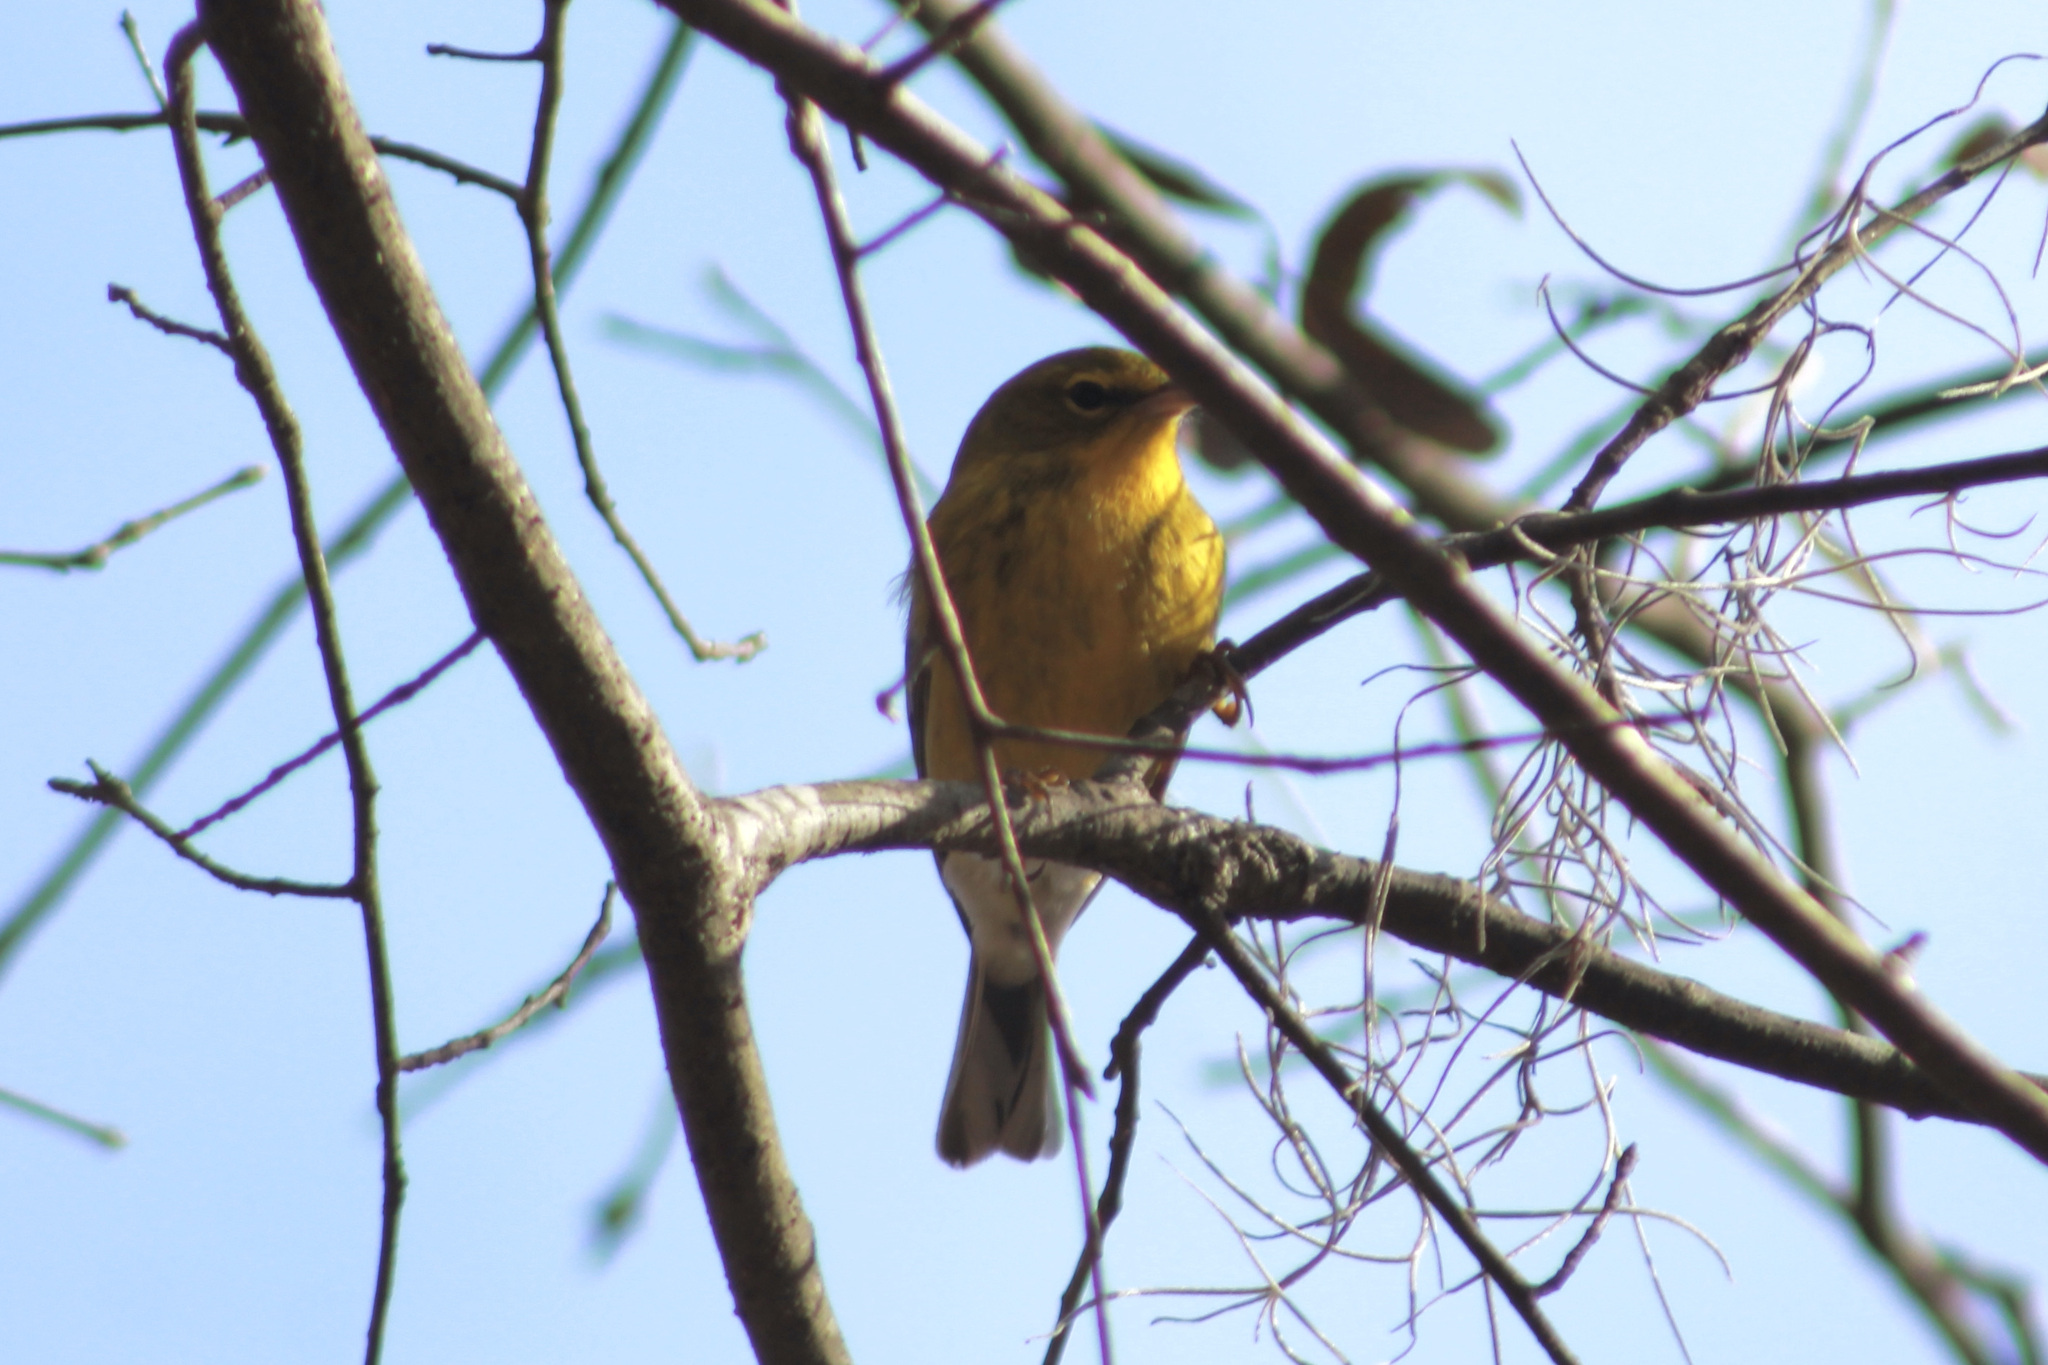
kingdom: Animalia
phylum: Chordata
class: Aves
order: Passeriformes
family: Parulidae
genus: Setophaga
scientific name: Setophaga pinus
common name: Pine warbler
